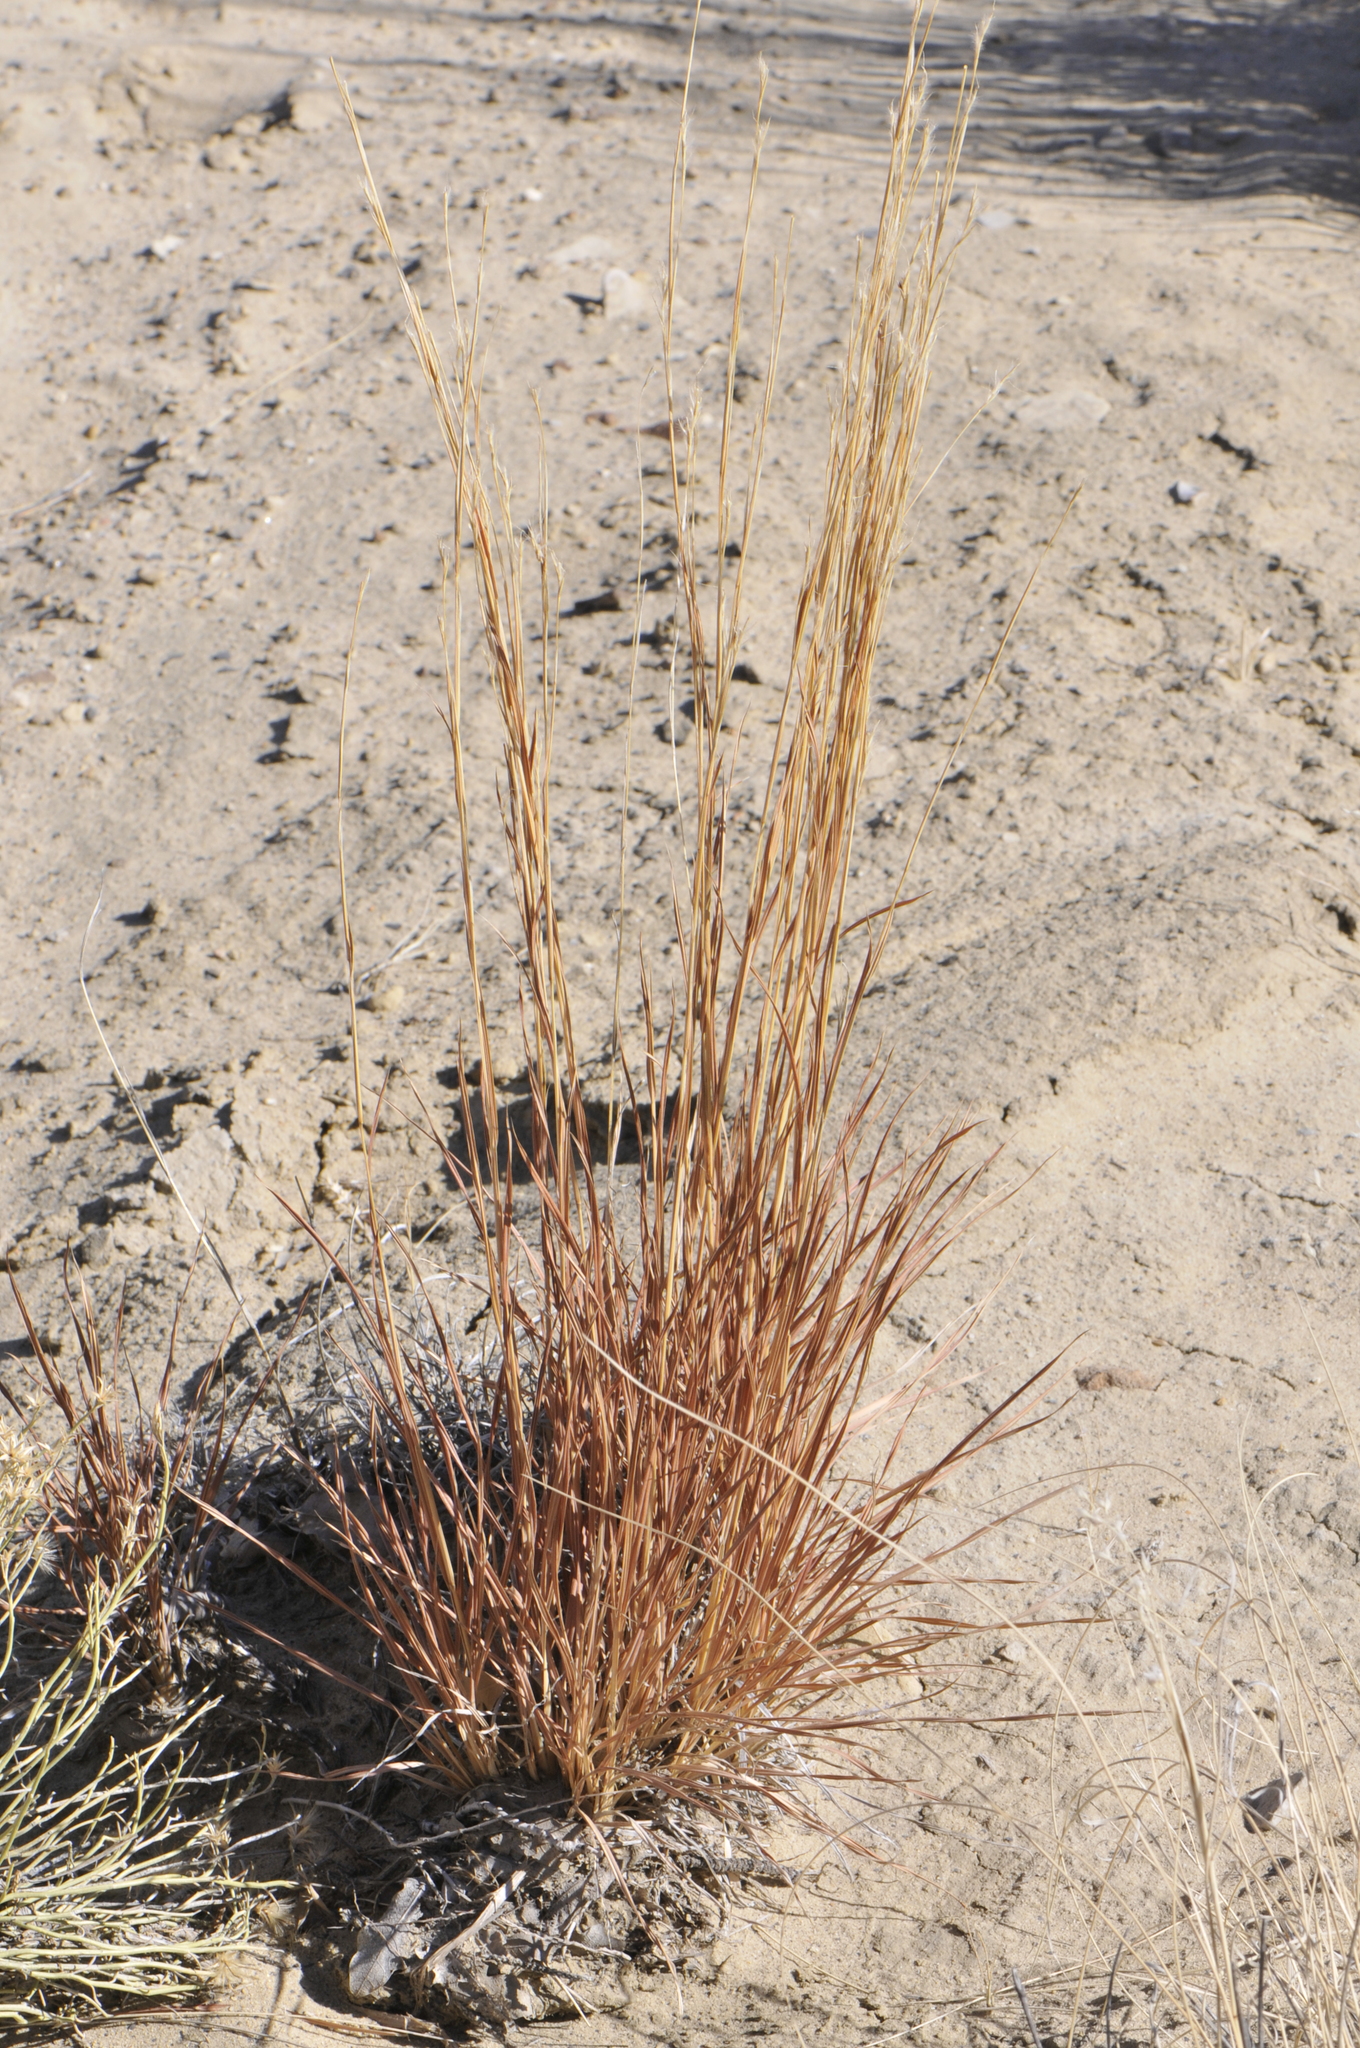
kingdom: Plantae
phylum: Tracheophyta
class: Liliopsida
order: Poales
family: Poaceae
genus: Schizachyrium
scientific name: Schizachyrium scoparium
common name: Little bluestem
